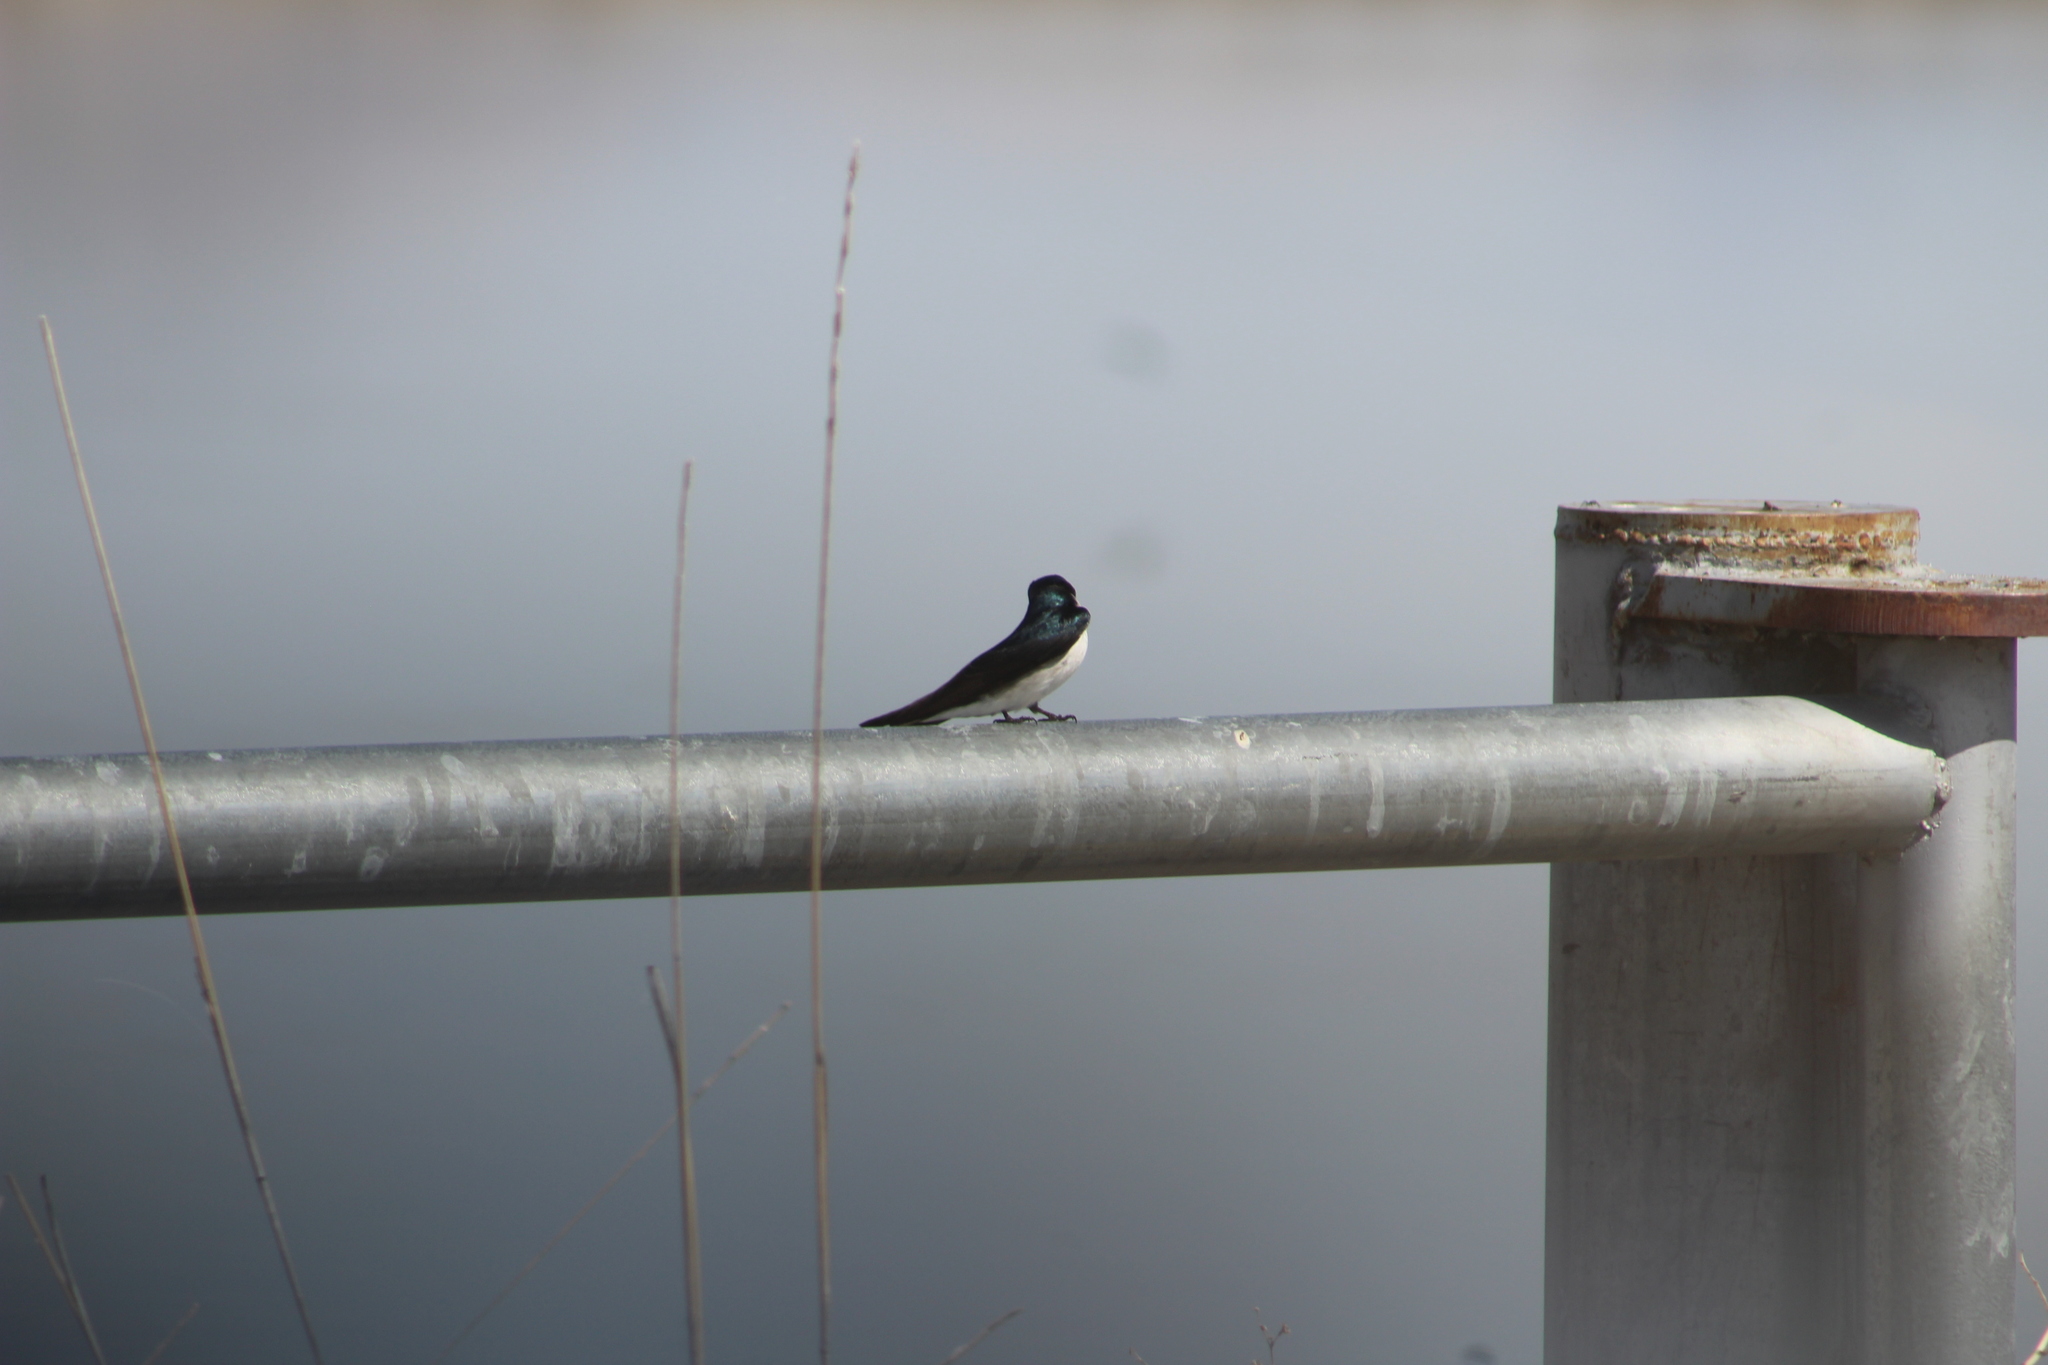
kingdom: Animalia
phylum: Chordata
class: Aves
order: Passeriformes
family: Hirundinidae
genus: Tachycineta
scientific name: Tachycineta bicolor
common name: Tree swallow
